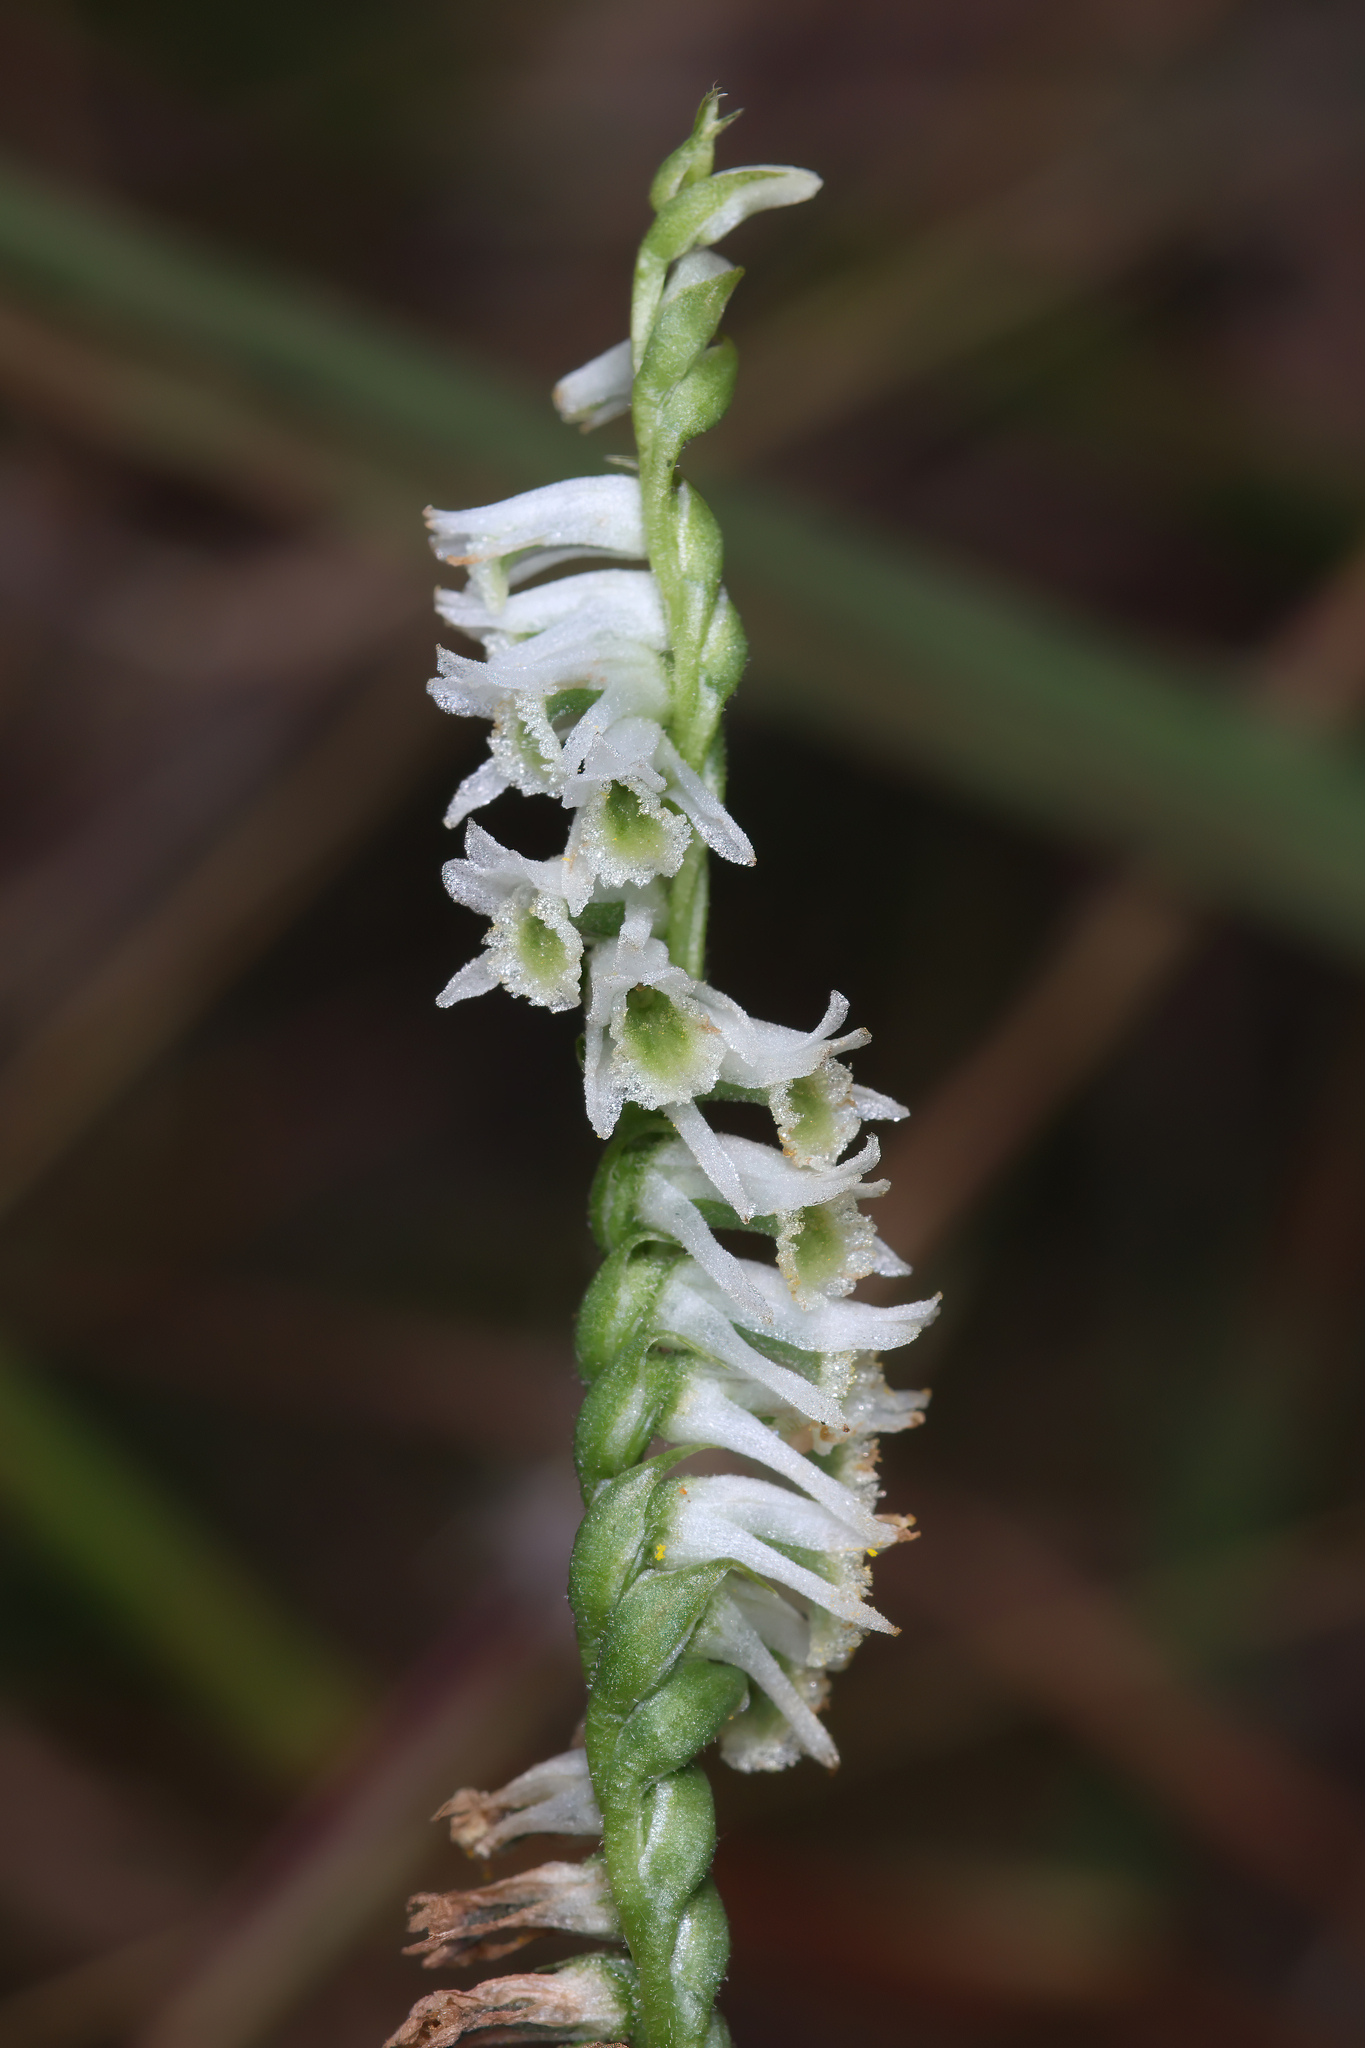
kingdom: Plantae
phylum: Tracheophyta
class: Liliopsida
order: Asparagales
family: Orchidaceae
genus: Spiranthes
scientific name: Spiranthes lacera
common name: Northern slender ladies'-tresses
